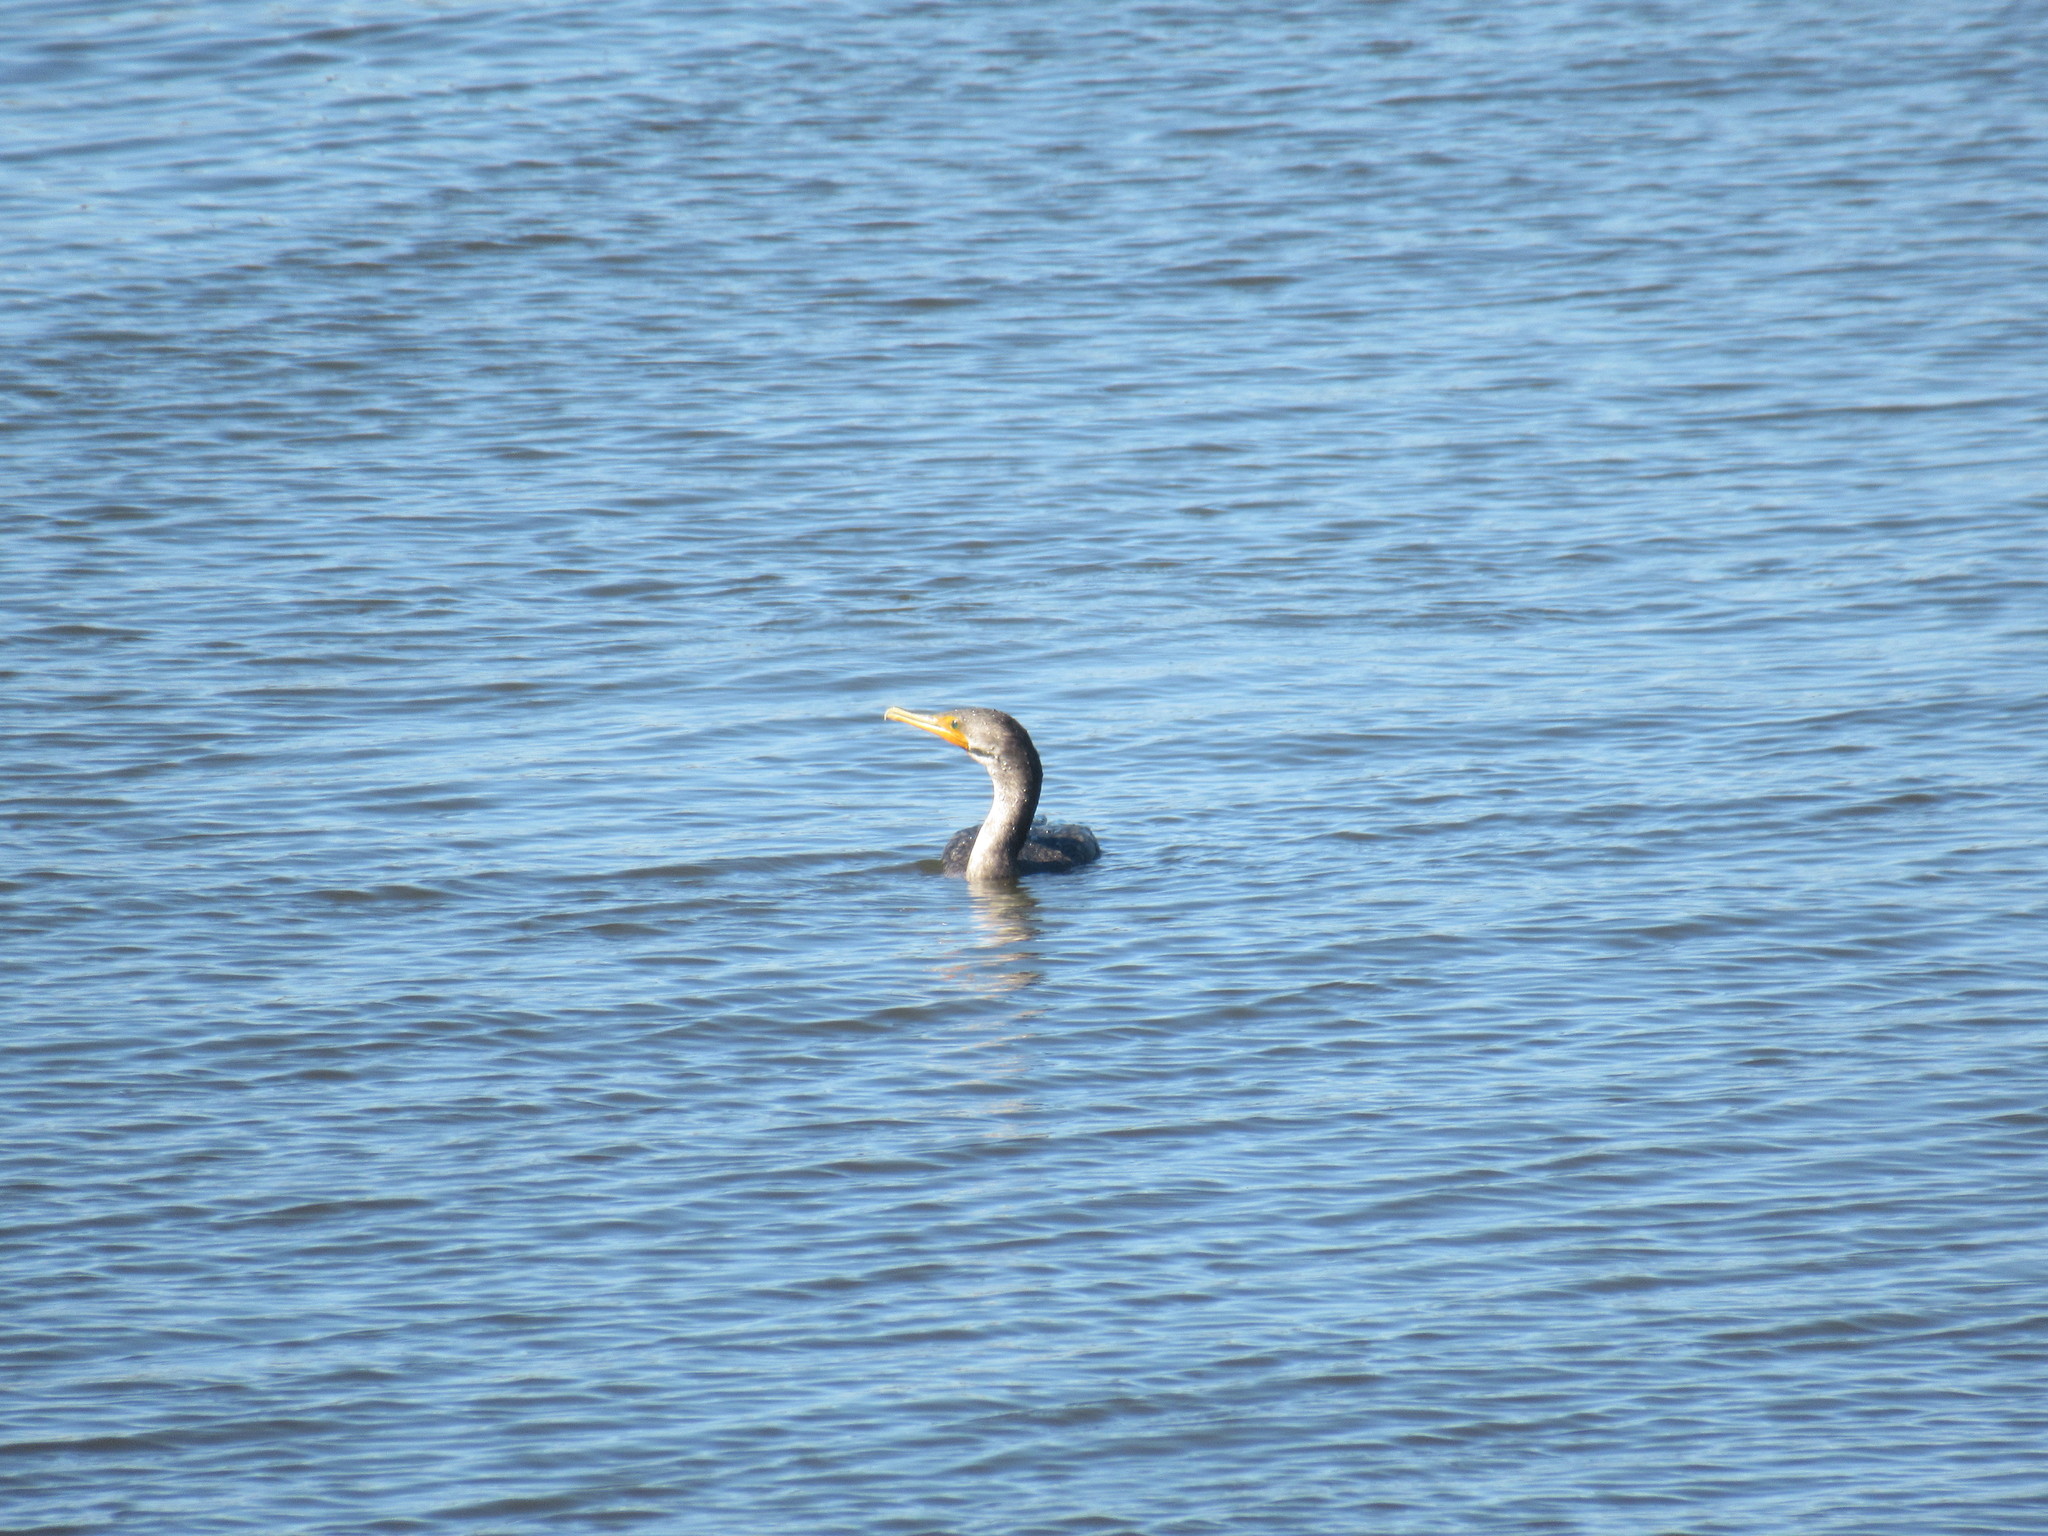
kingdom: Animalia
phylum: Chordata
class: Aves
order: Suliformes
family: Phalacrocoracidae
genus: Phalacrocorax
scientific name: Phalacrocorax auritus
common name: Double-crested cormorant
